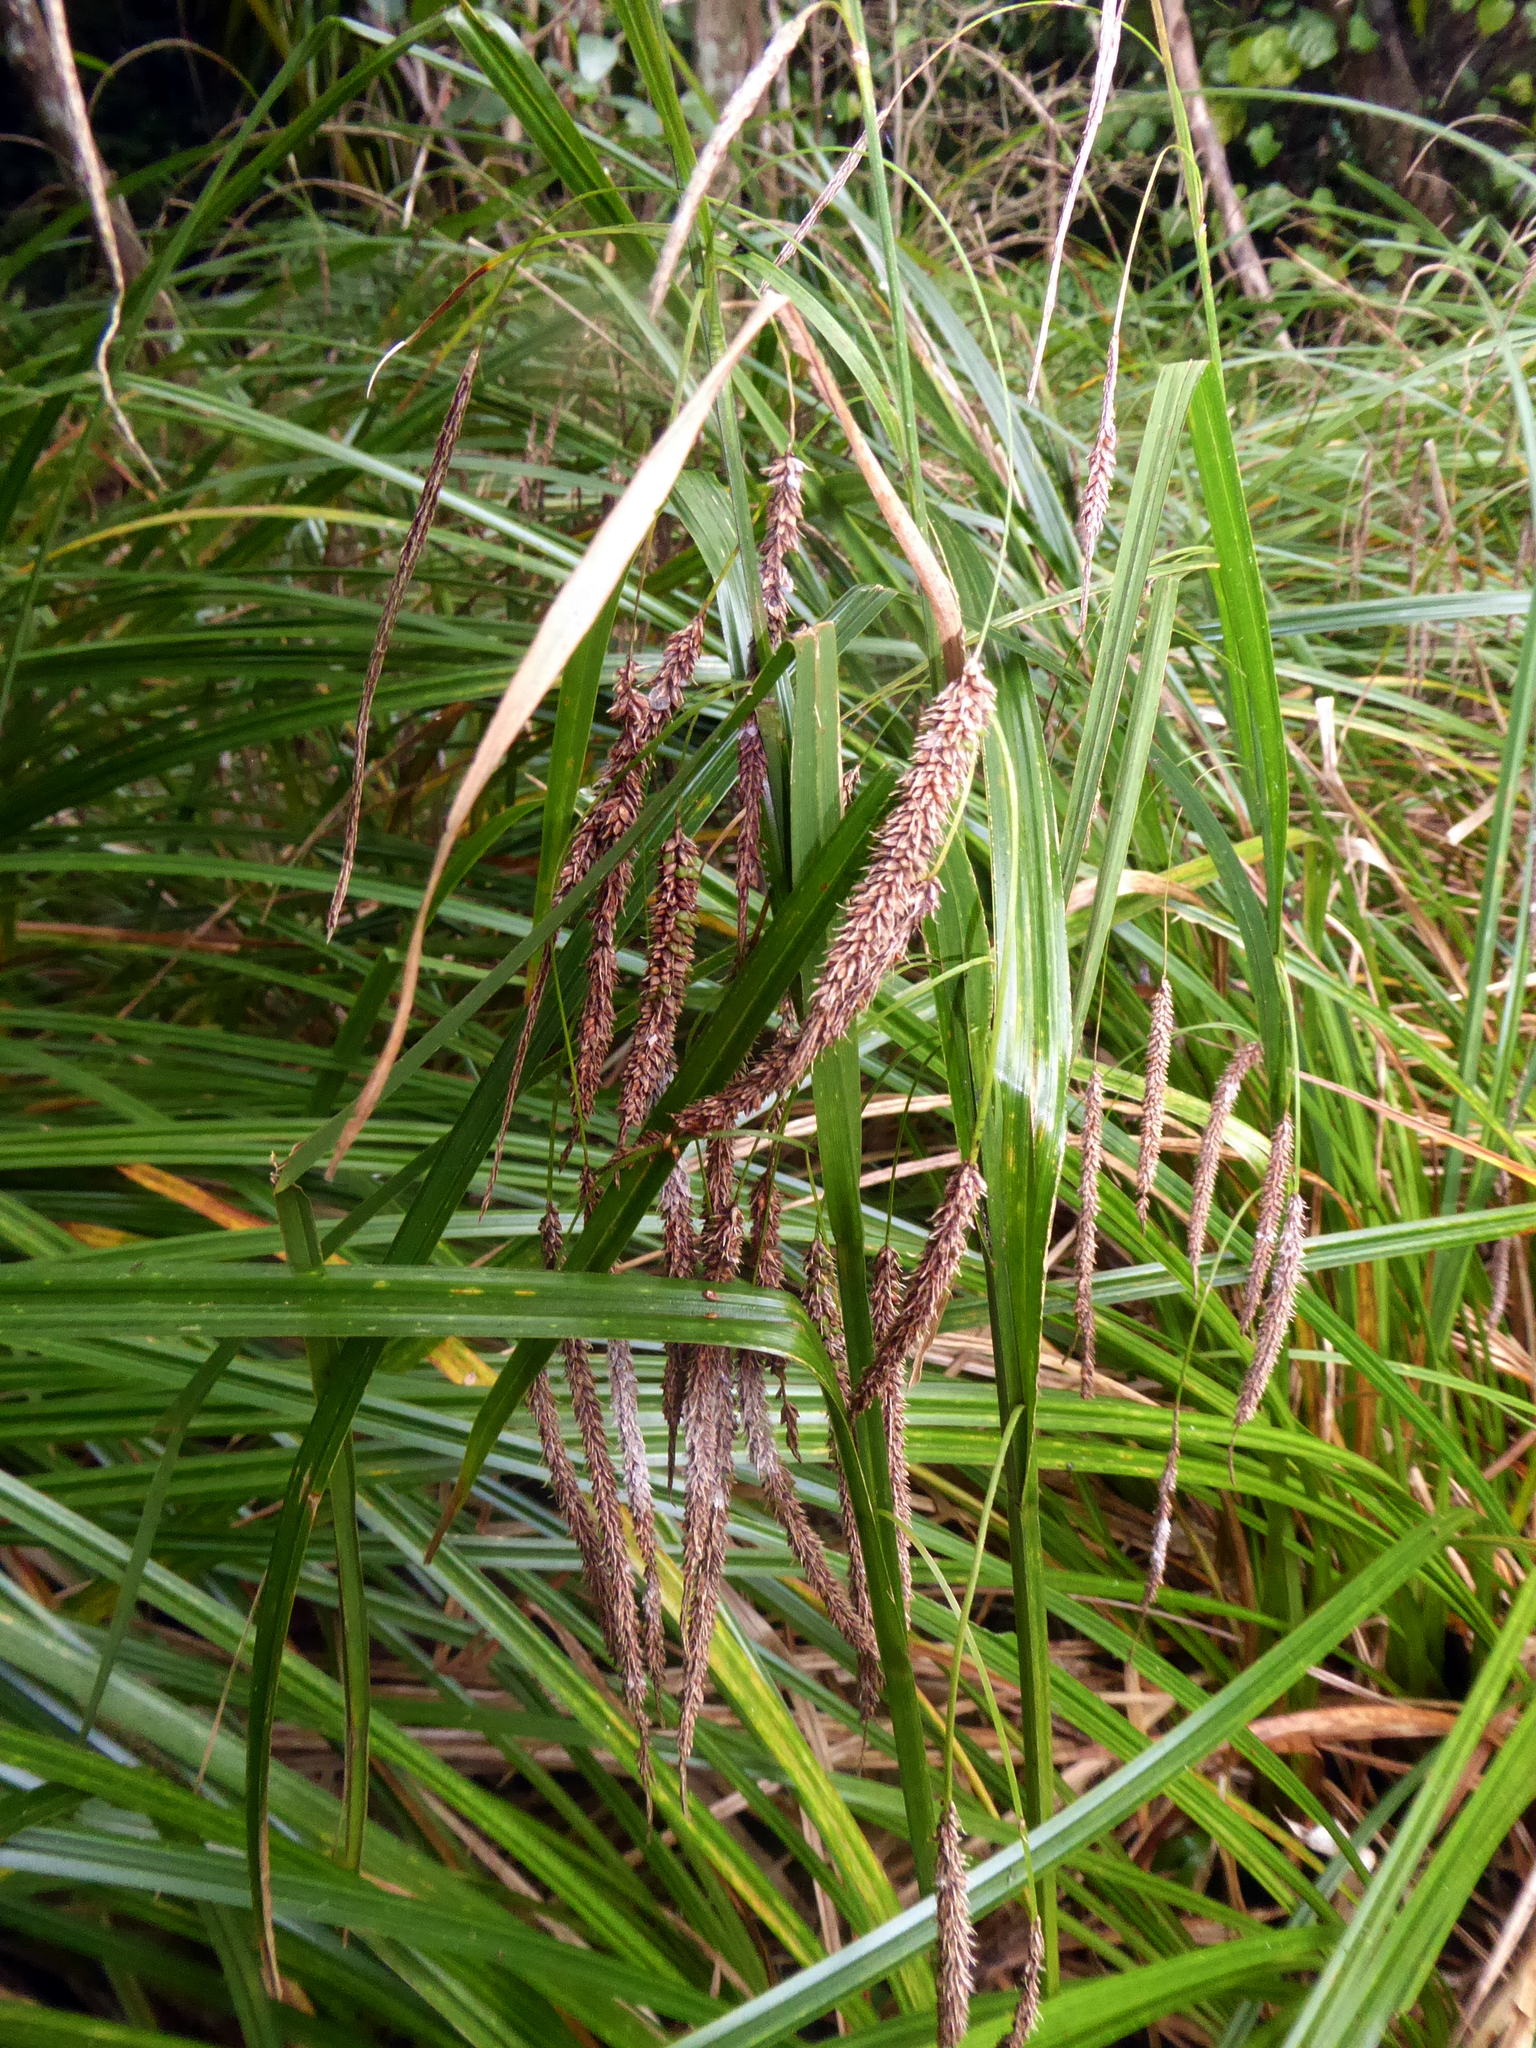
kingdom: Plantae
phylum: Tracheophyta
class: Liliopsida
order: Poales
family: Cyperaceae
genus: Carex
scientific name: Carex geminata
